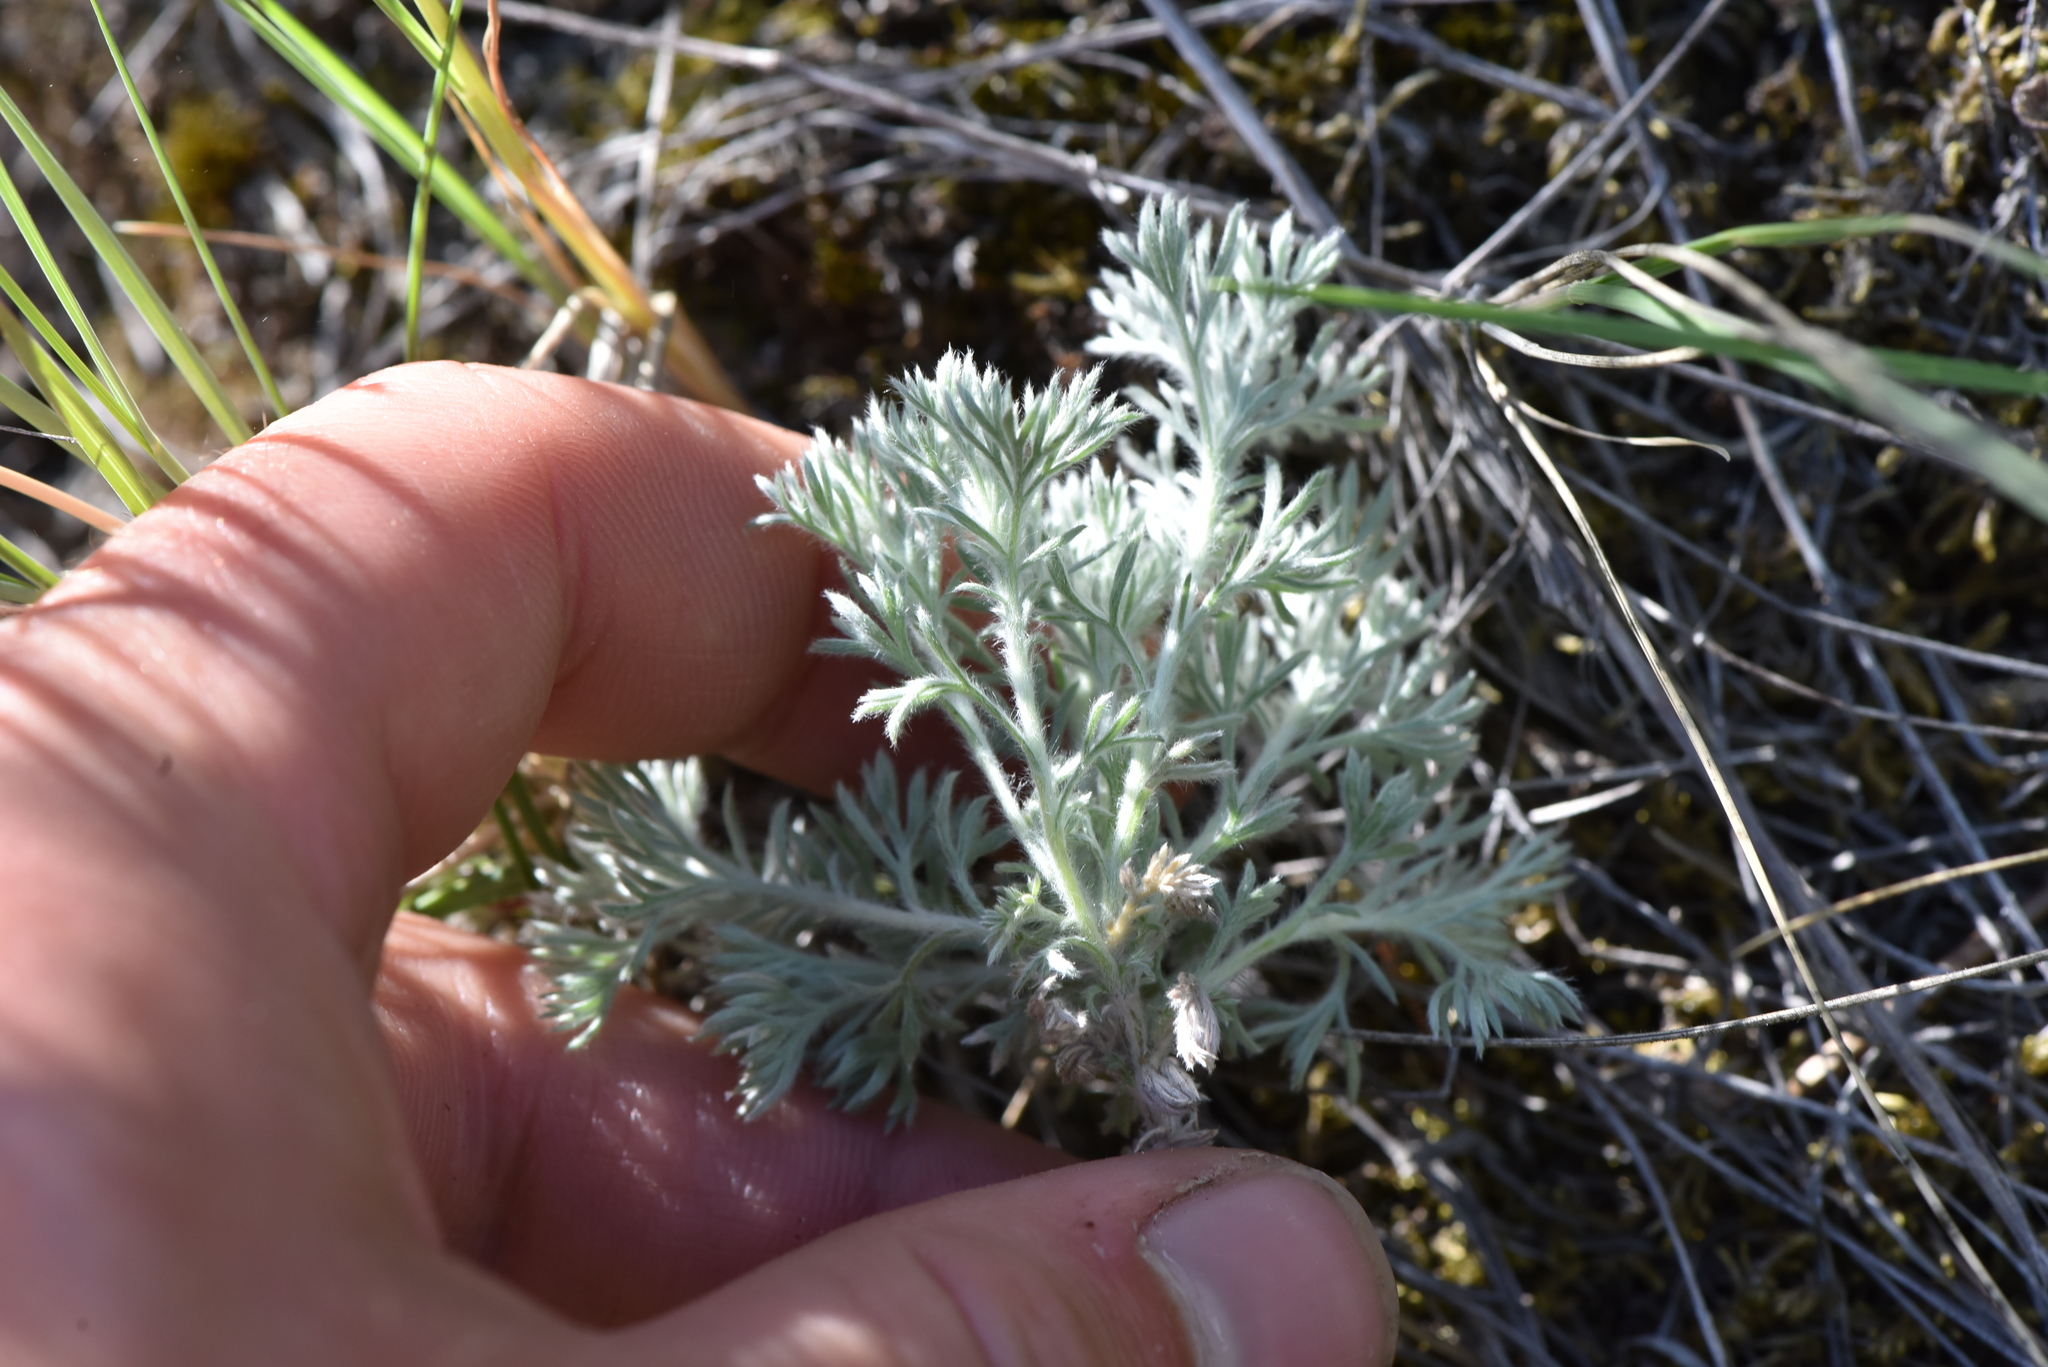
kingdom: Plantae
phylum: Tracheophyta
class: Magnoliopsida
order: Asterales
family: Asteraceae
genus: Artemisia
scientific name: Artemisia frigida
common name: Prairie sagewort
